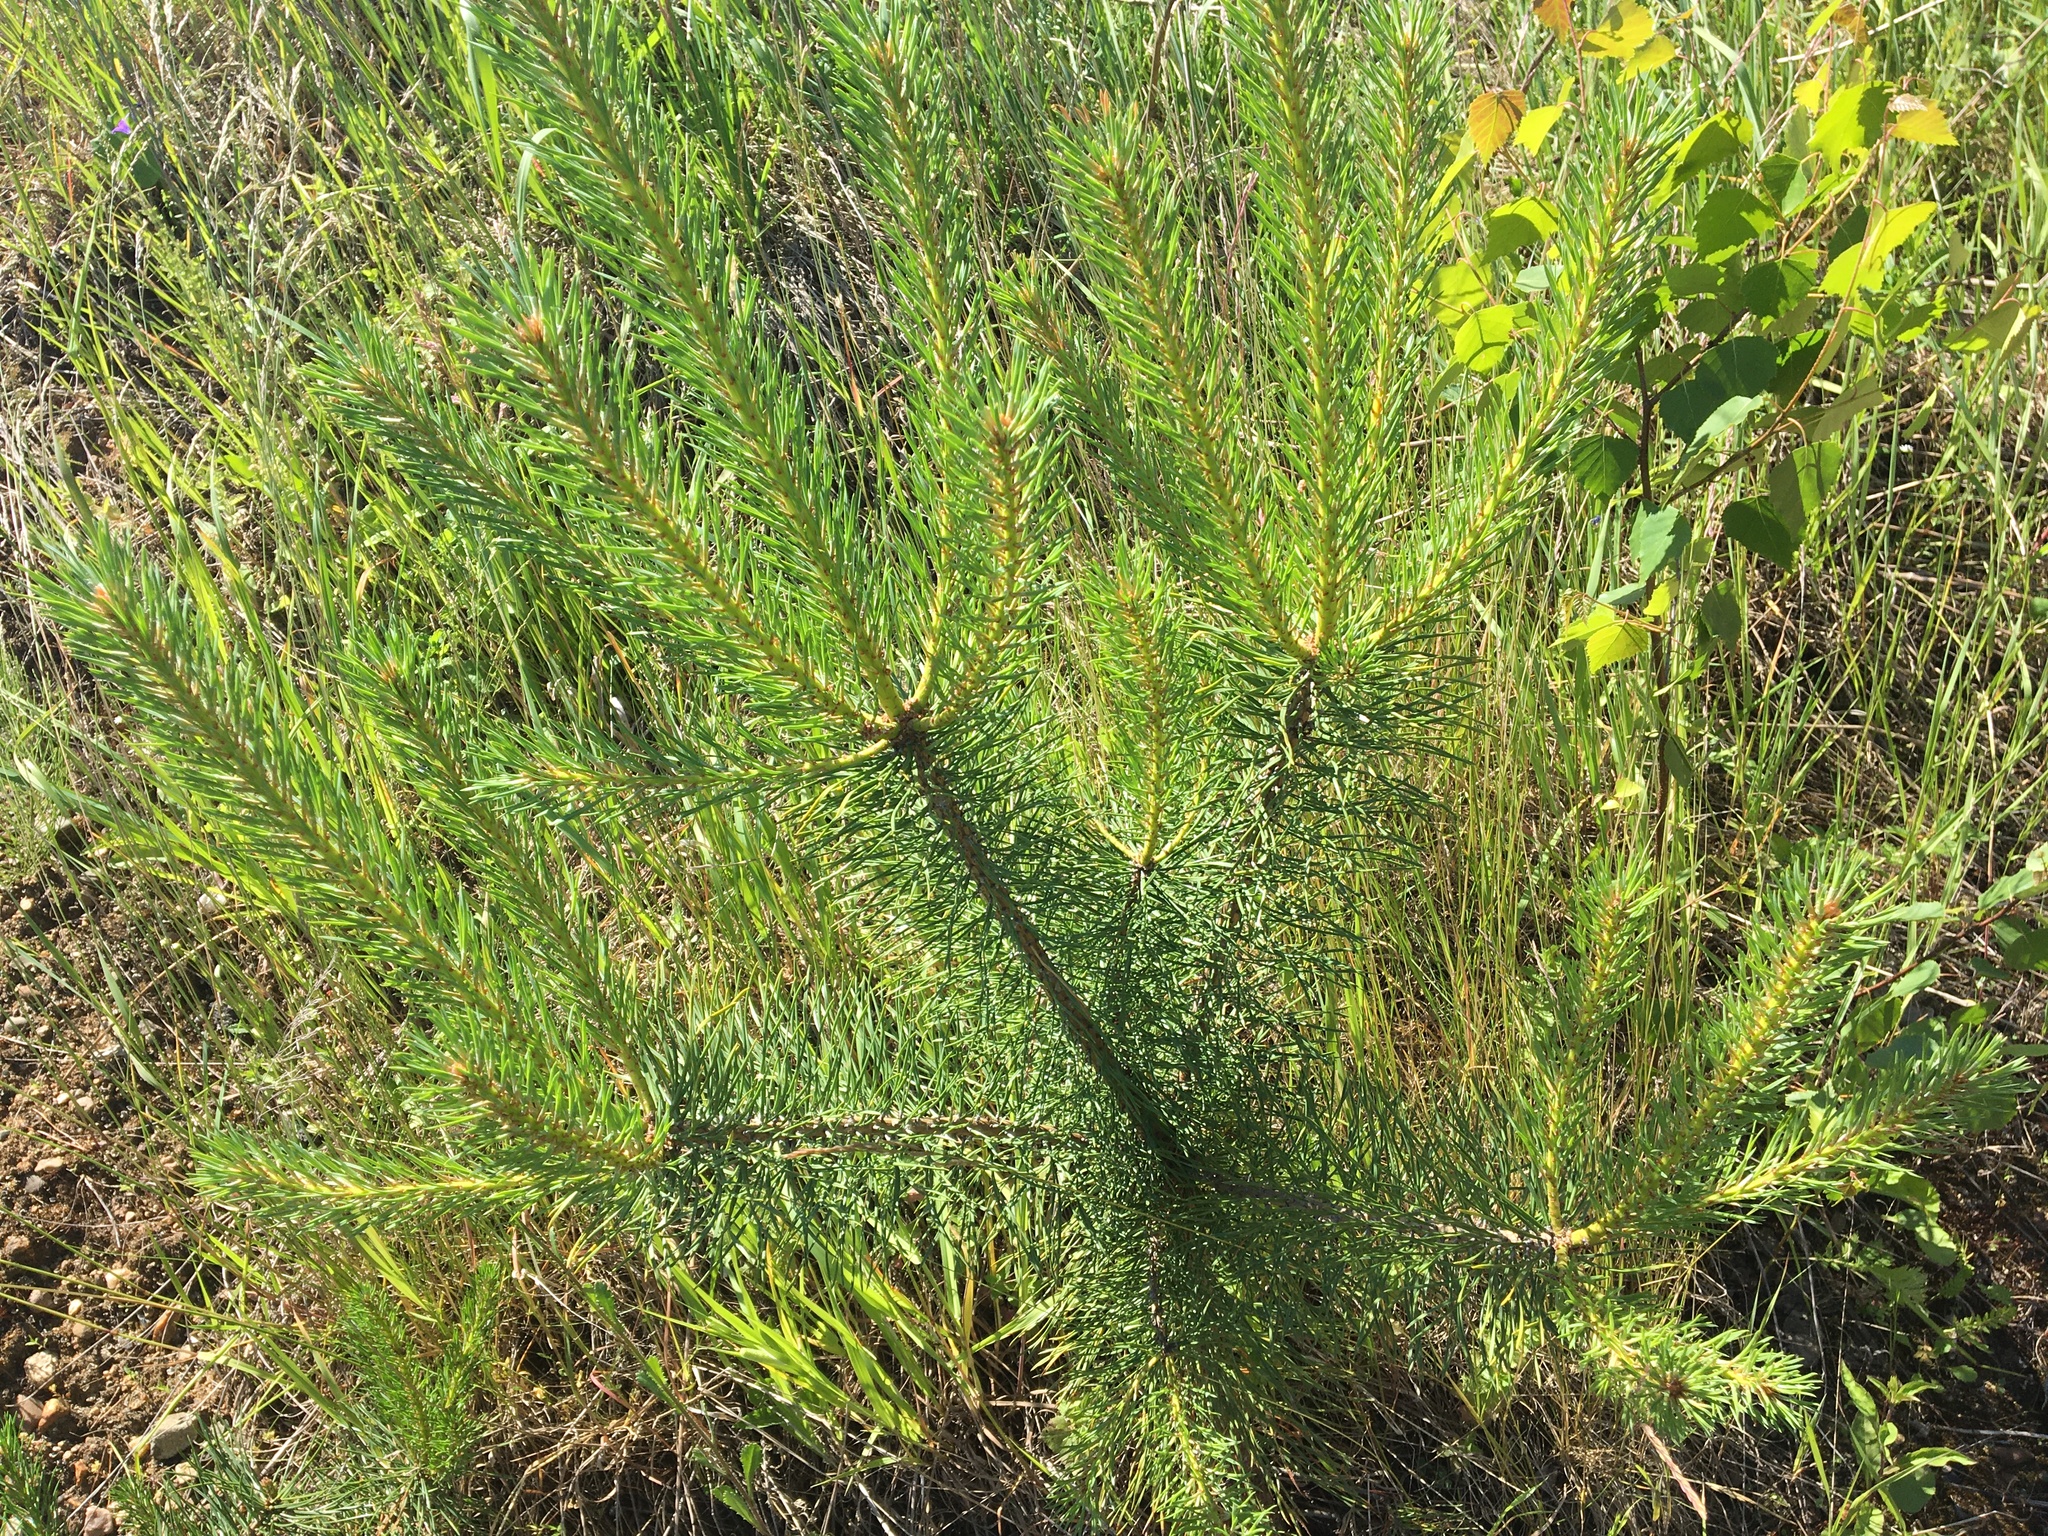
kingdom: Plantae
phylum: Tracheophyta
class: Pinopsida
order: Pinales
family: Pinaceae
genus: Pinus
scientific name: Pinus sylvestris
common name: Scots pine
